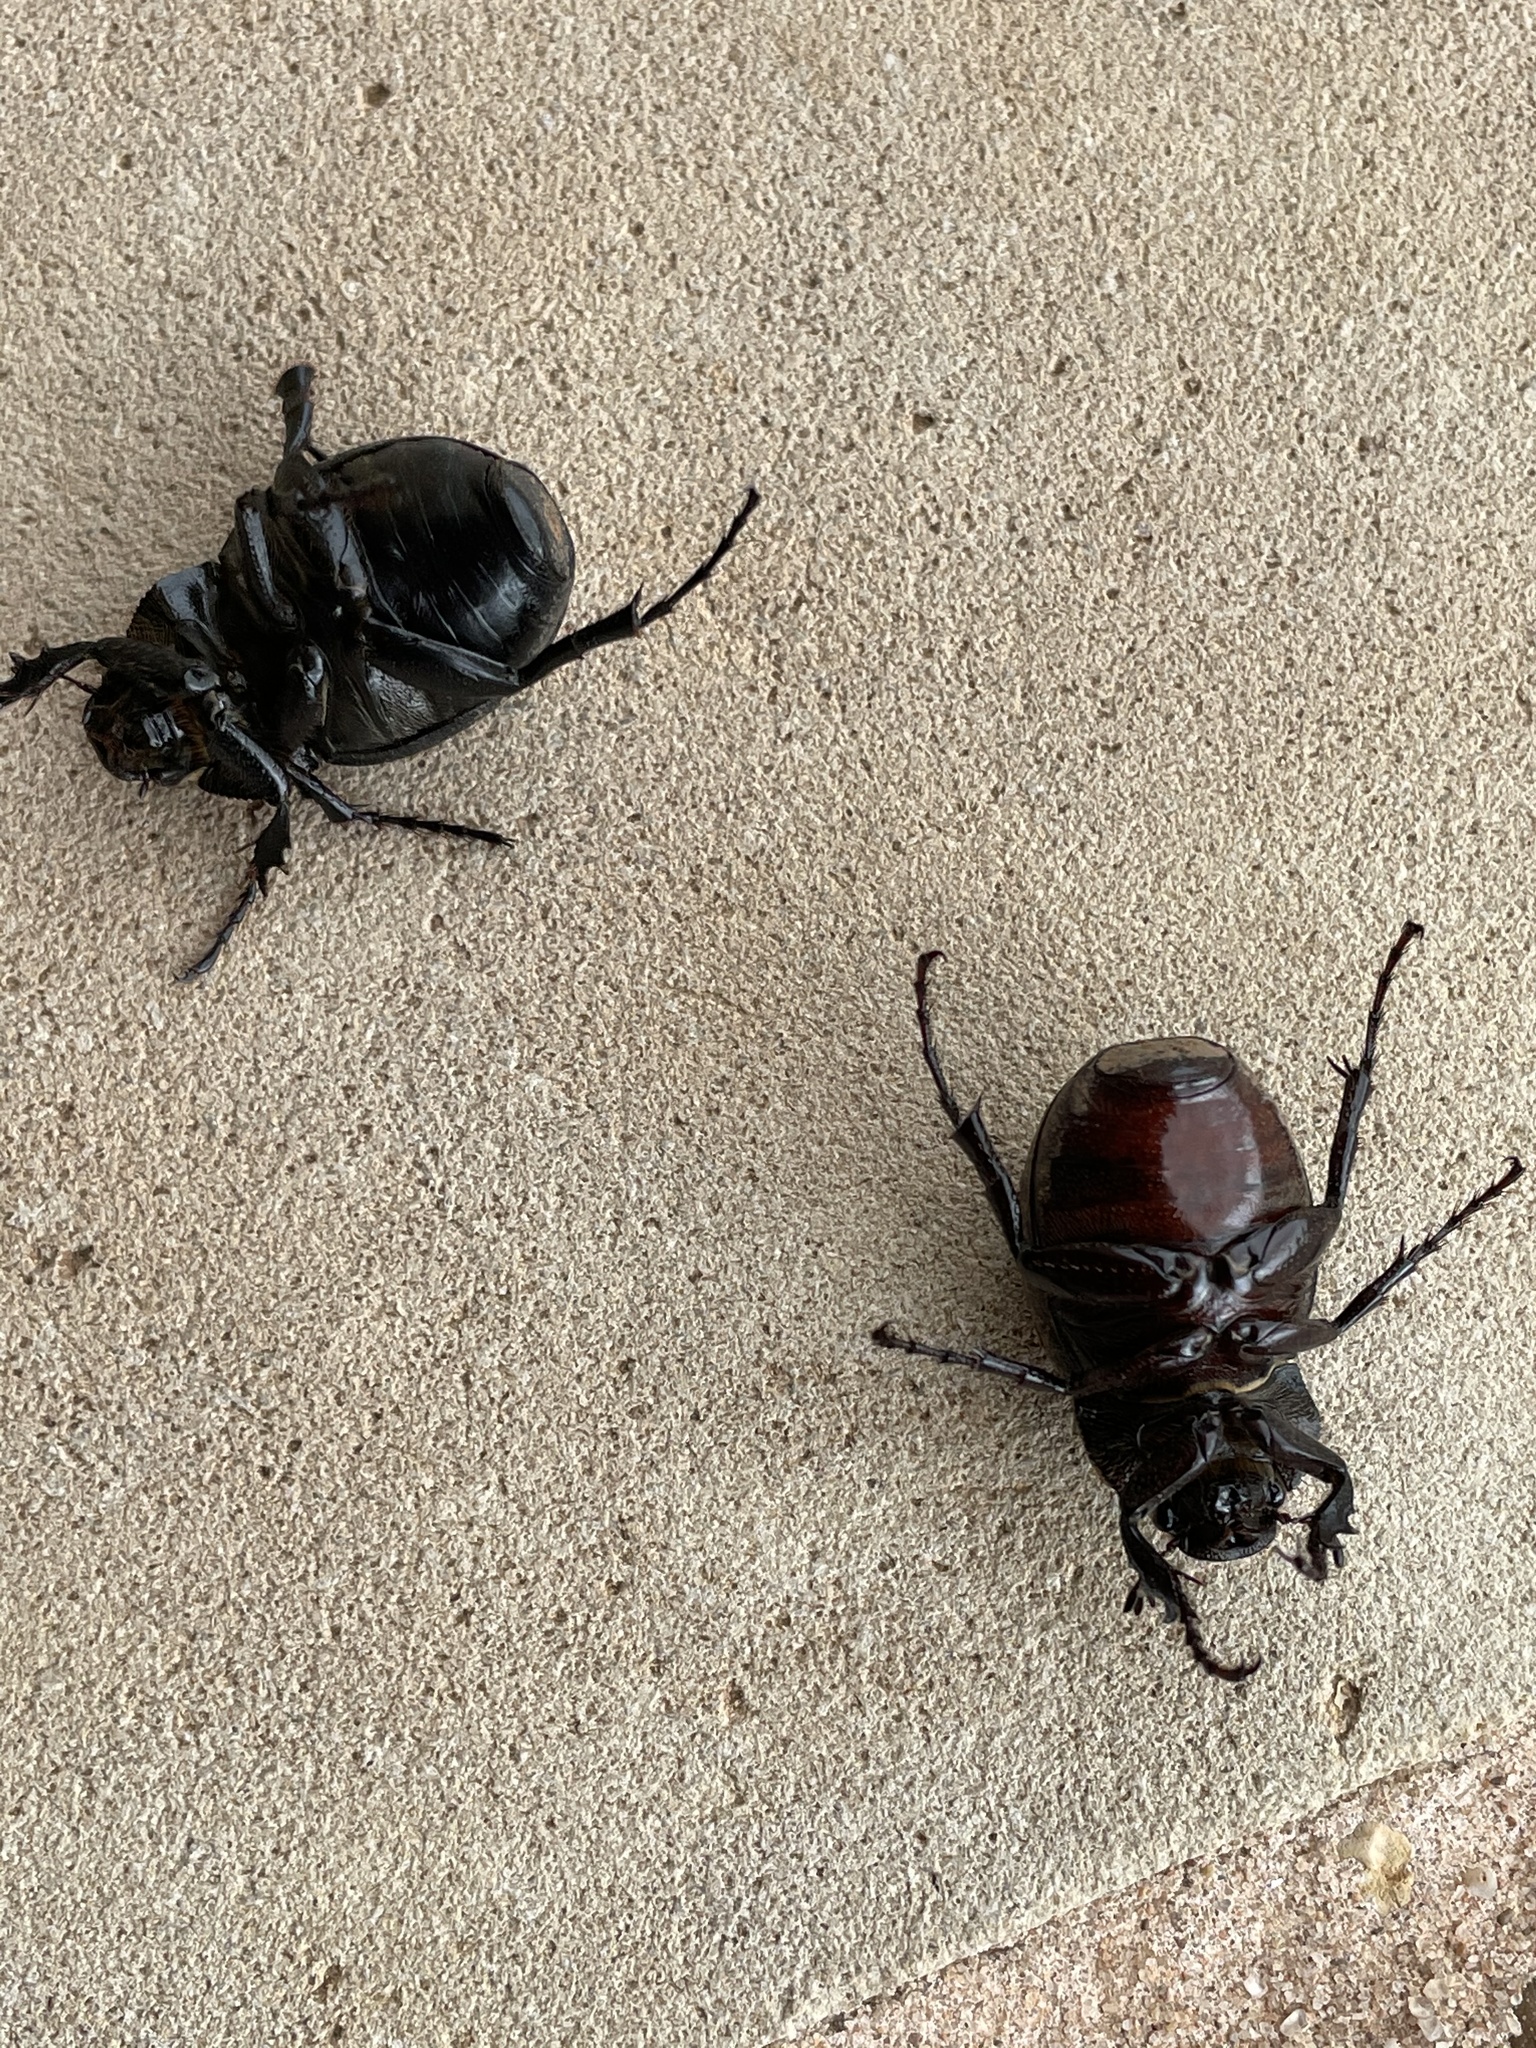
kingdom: Animalia
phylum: Arthropoda
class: Insecta
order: Coleoptera
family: Scarabaeidae
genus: Phyllophaga
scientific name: Phyllophaga cribrosa
